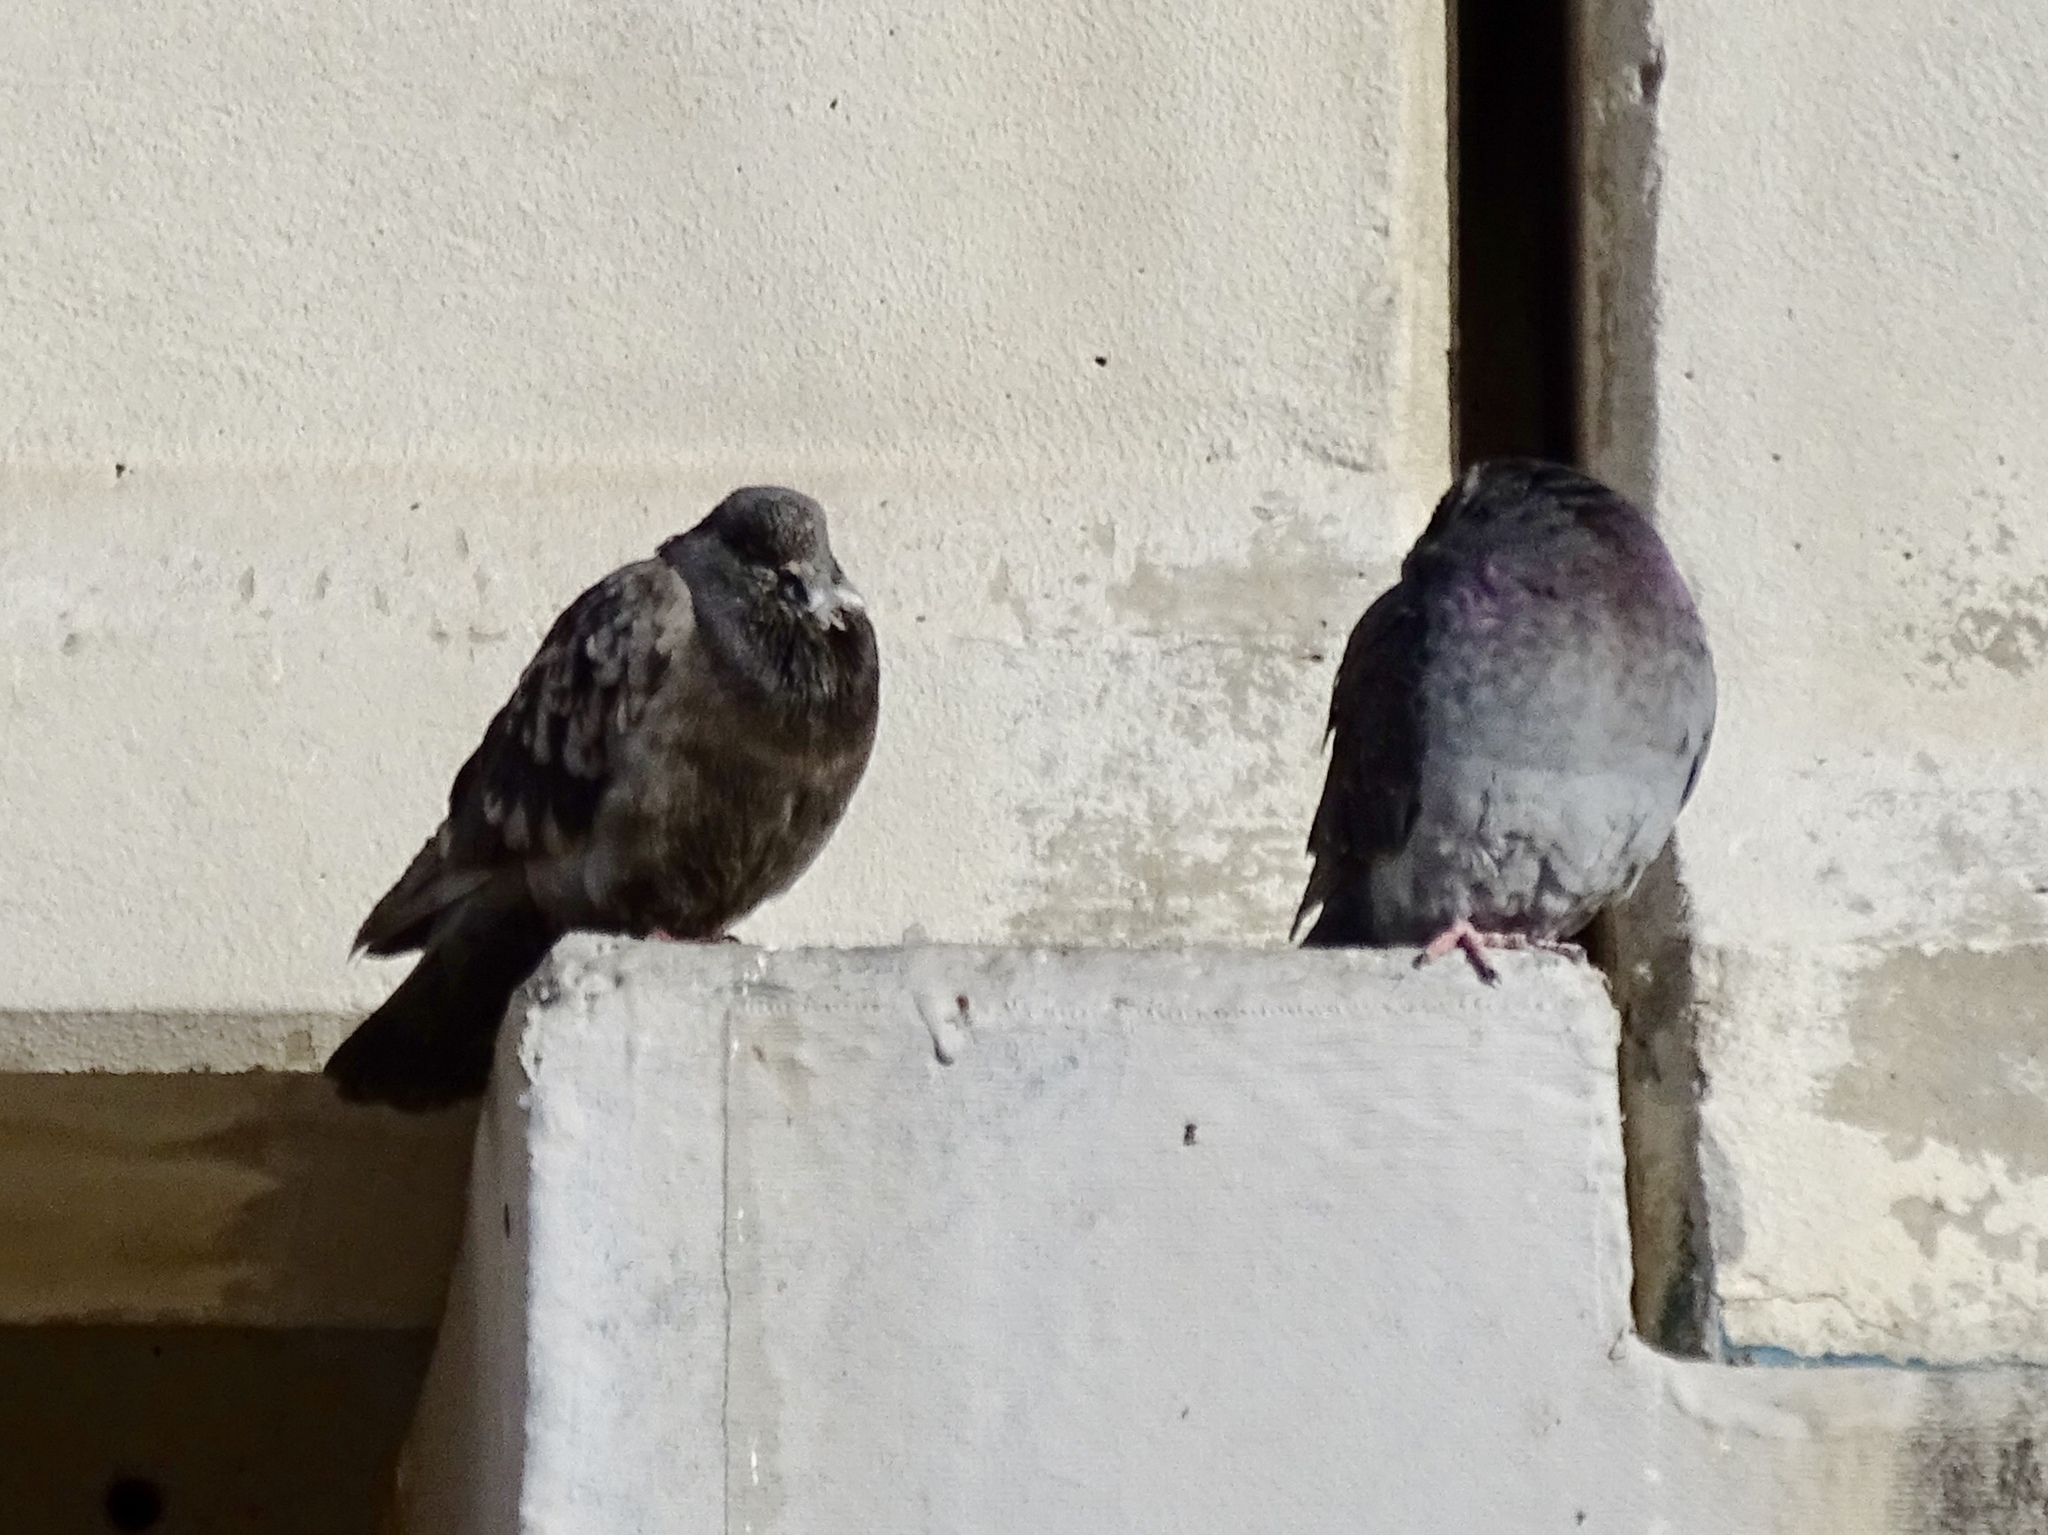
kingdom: Animalia
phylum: Chordata
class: Aves
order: Columbiformes
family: Columbidae
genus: Columba
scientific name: Columba livia
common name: Rock pigeon
